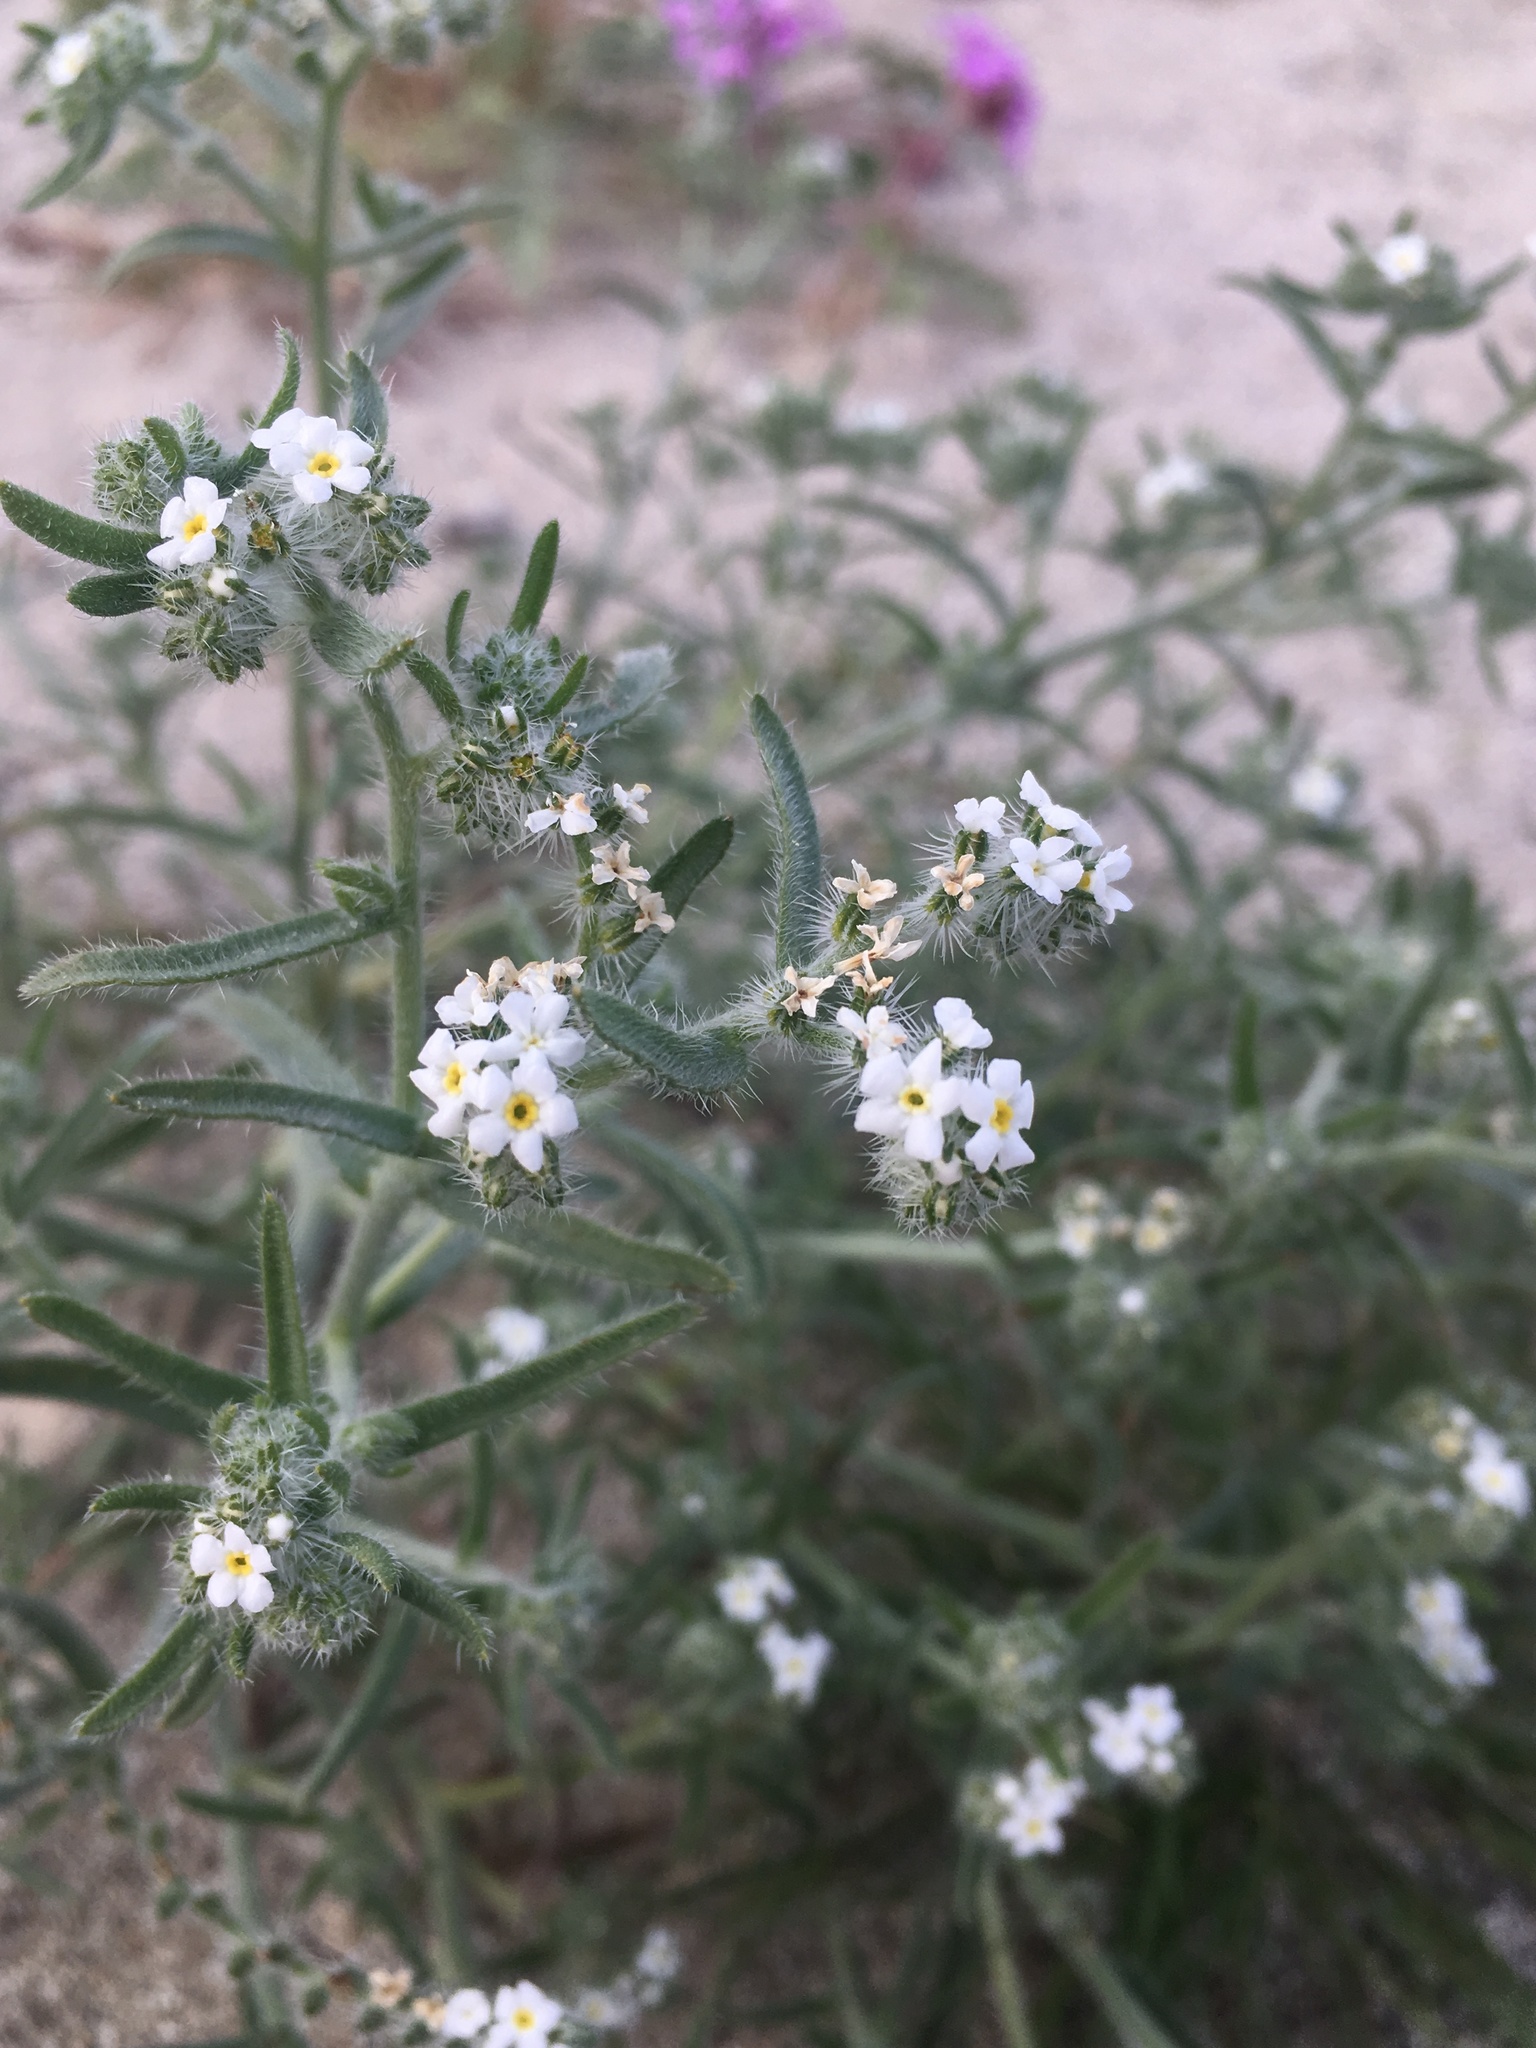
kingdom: Plantae
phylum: Tracheophyta
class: Magnoliopsida
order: Boraginales
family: Boraginaceae
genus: Johnstonella
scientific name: Johnstonella angustifolia
